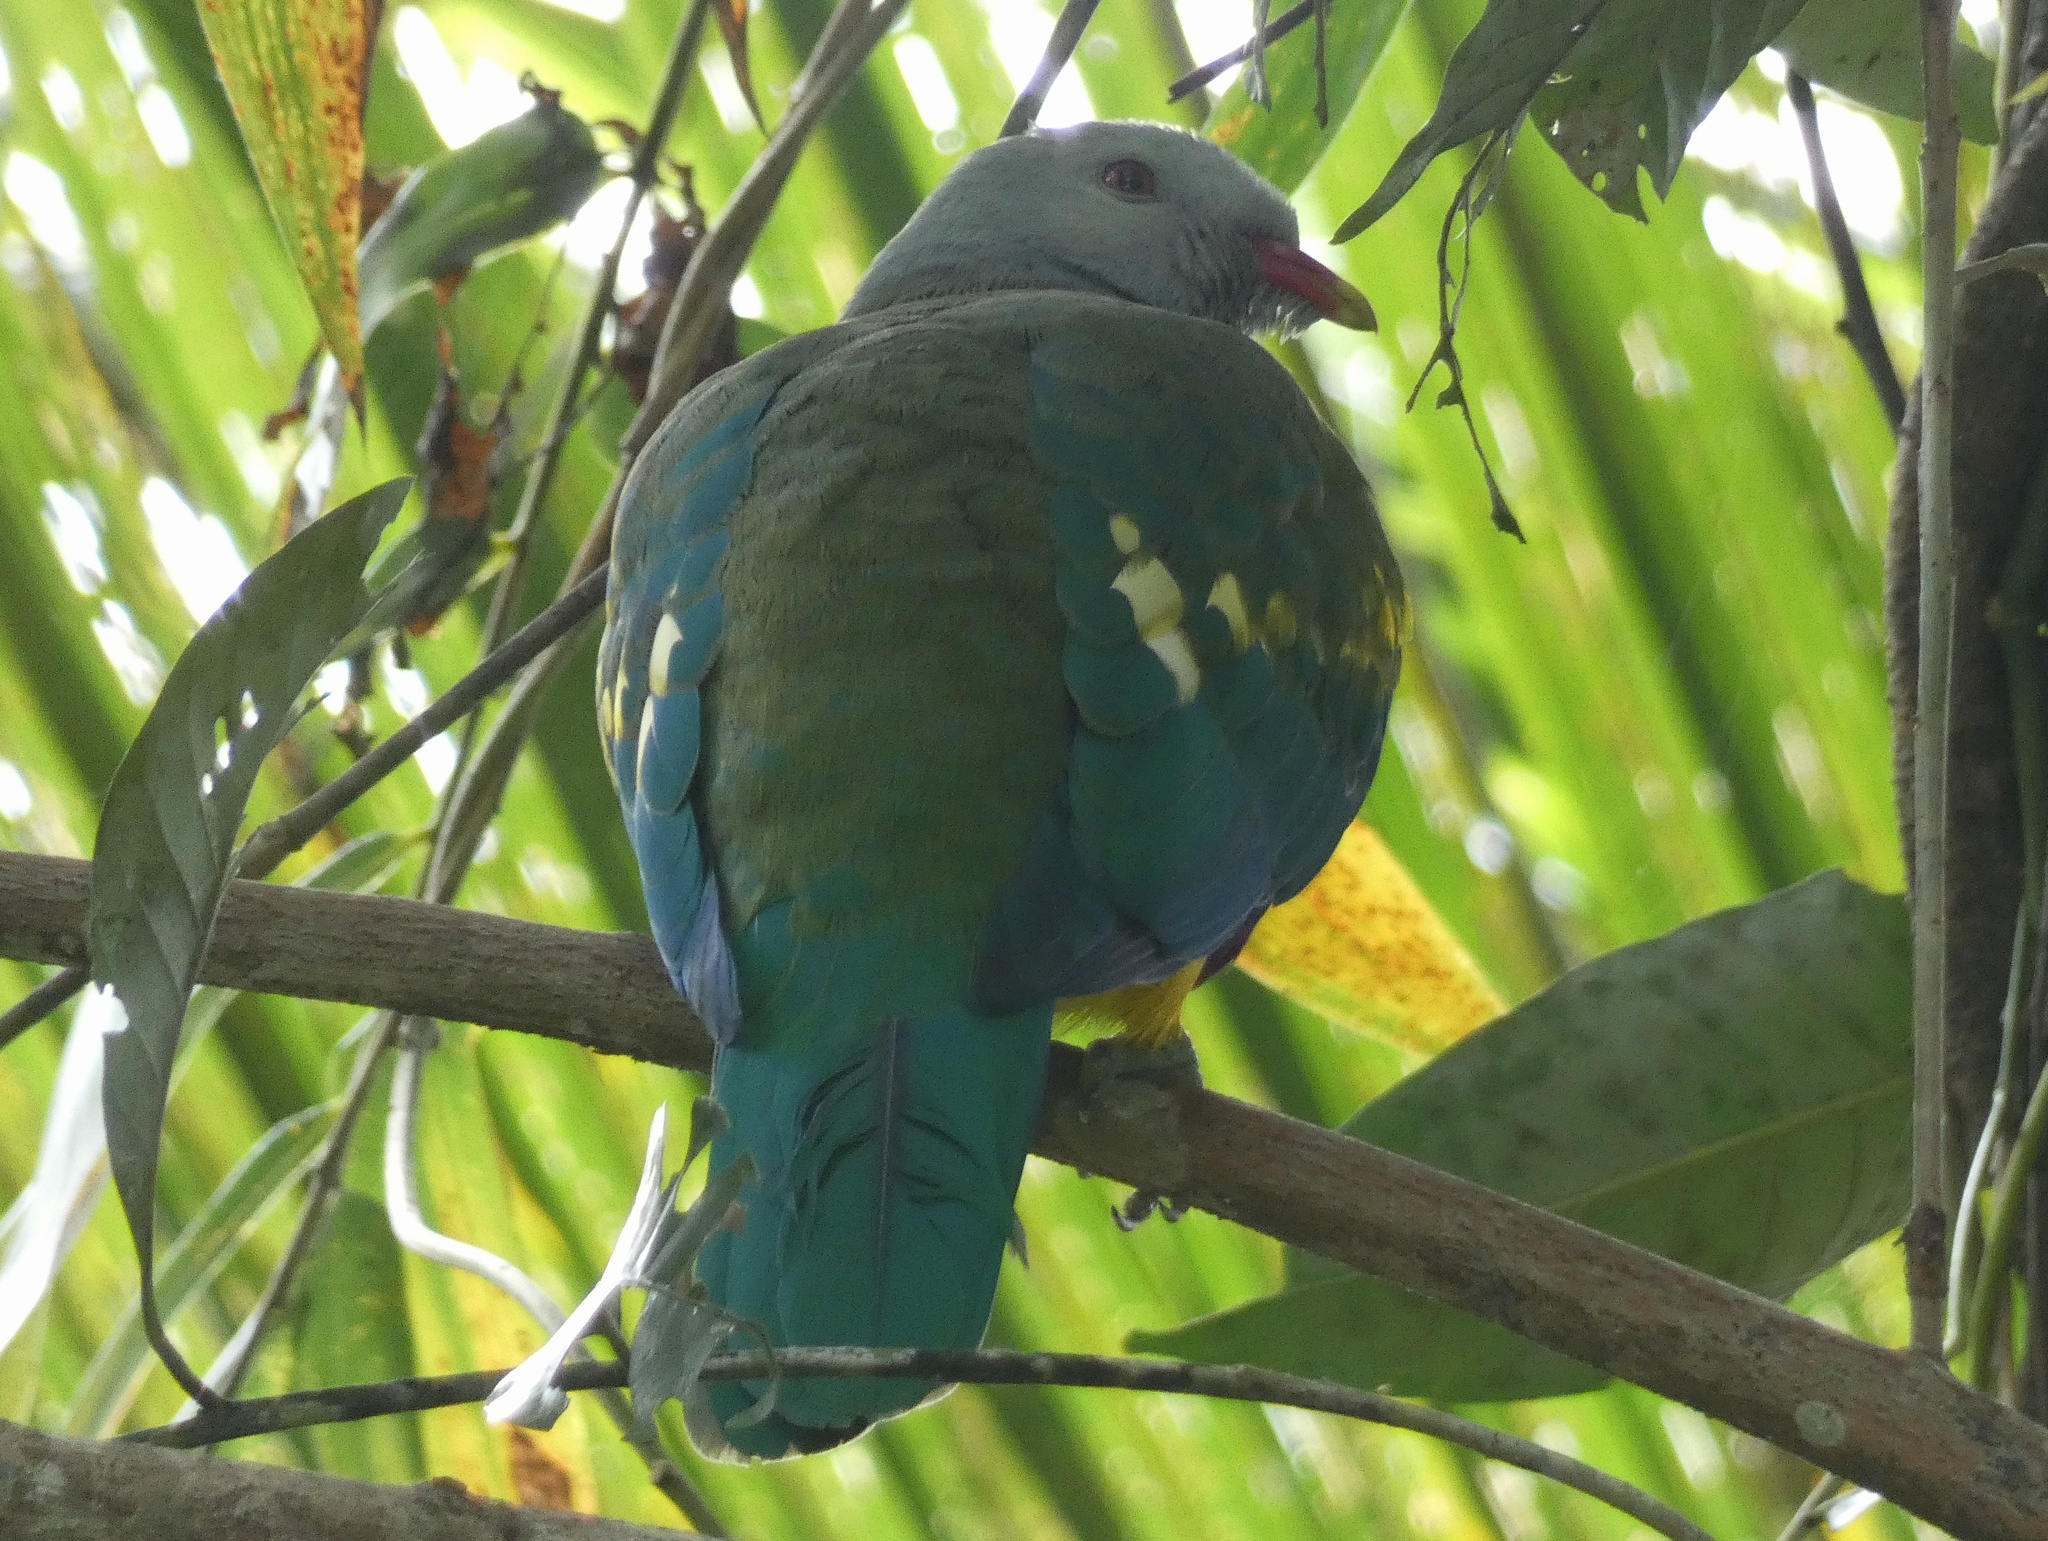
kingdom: Animalia
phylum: Chordata
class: Aves
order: Columbiformes
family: Columbidae
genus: Ptilinopus
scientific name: Ptilinopus magnificus
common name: Wompoo fruit dove
